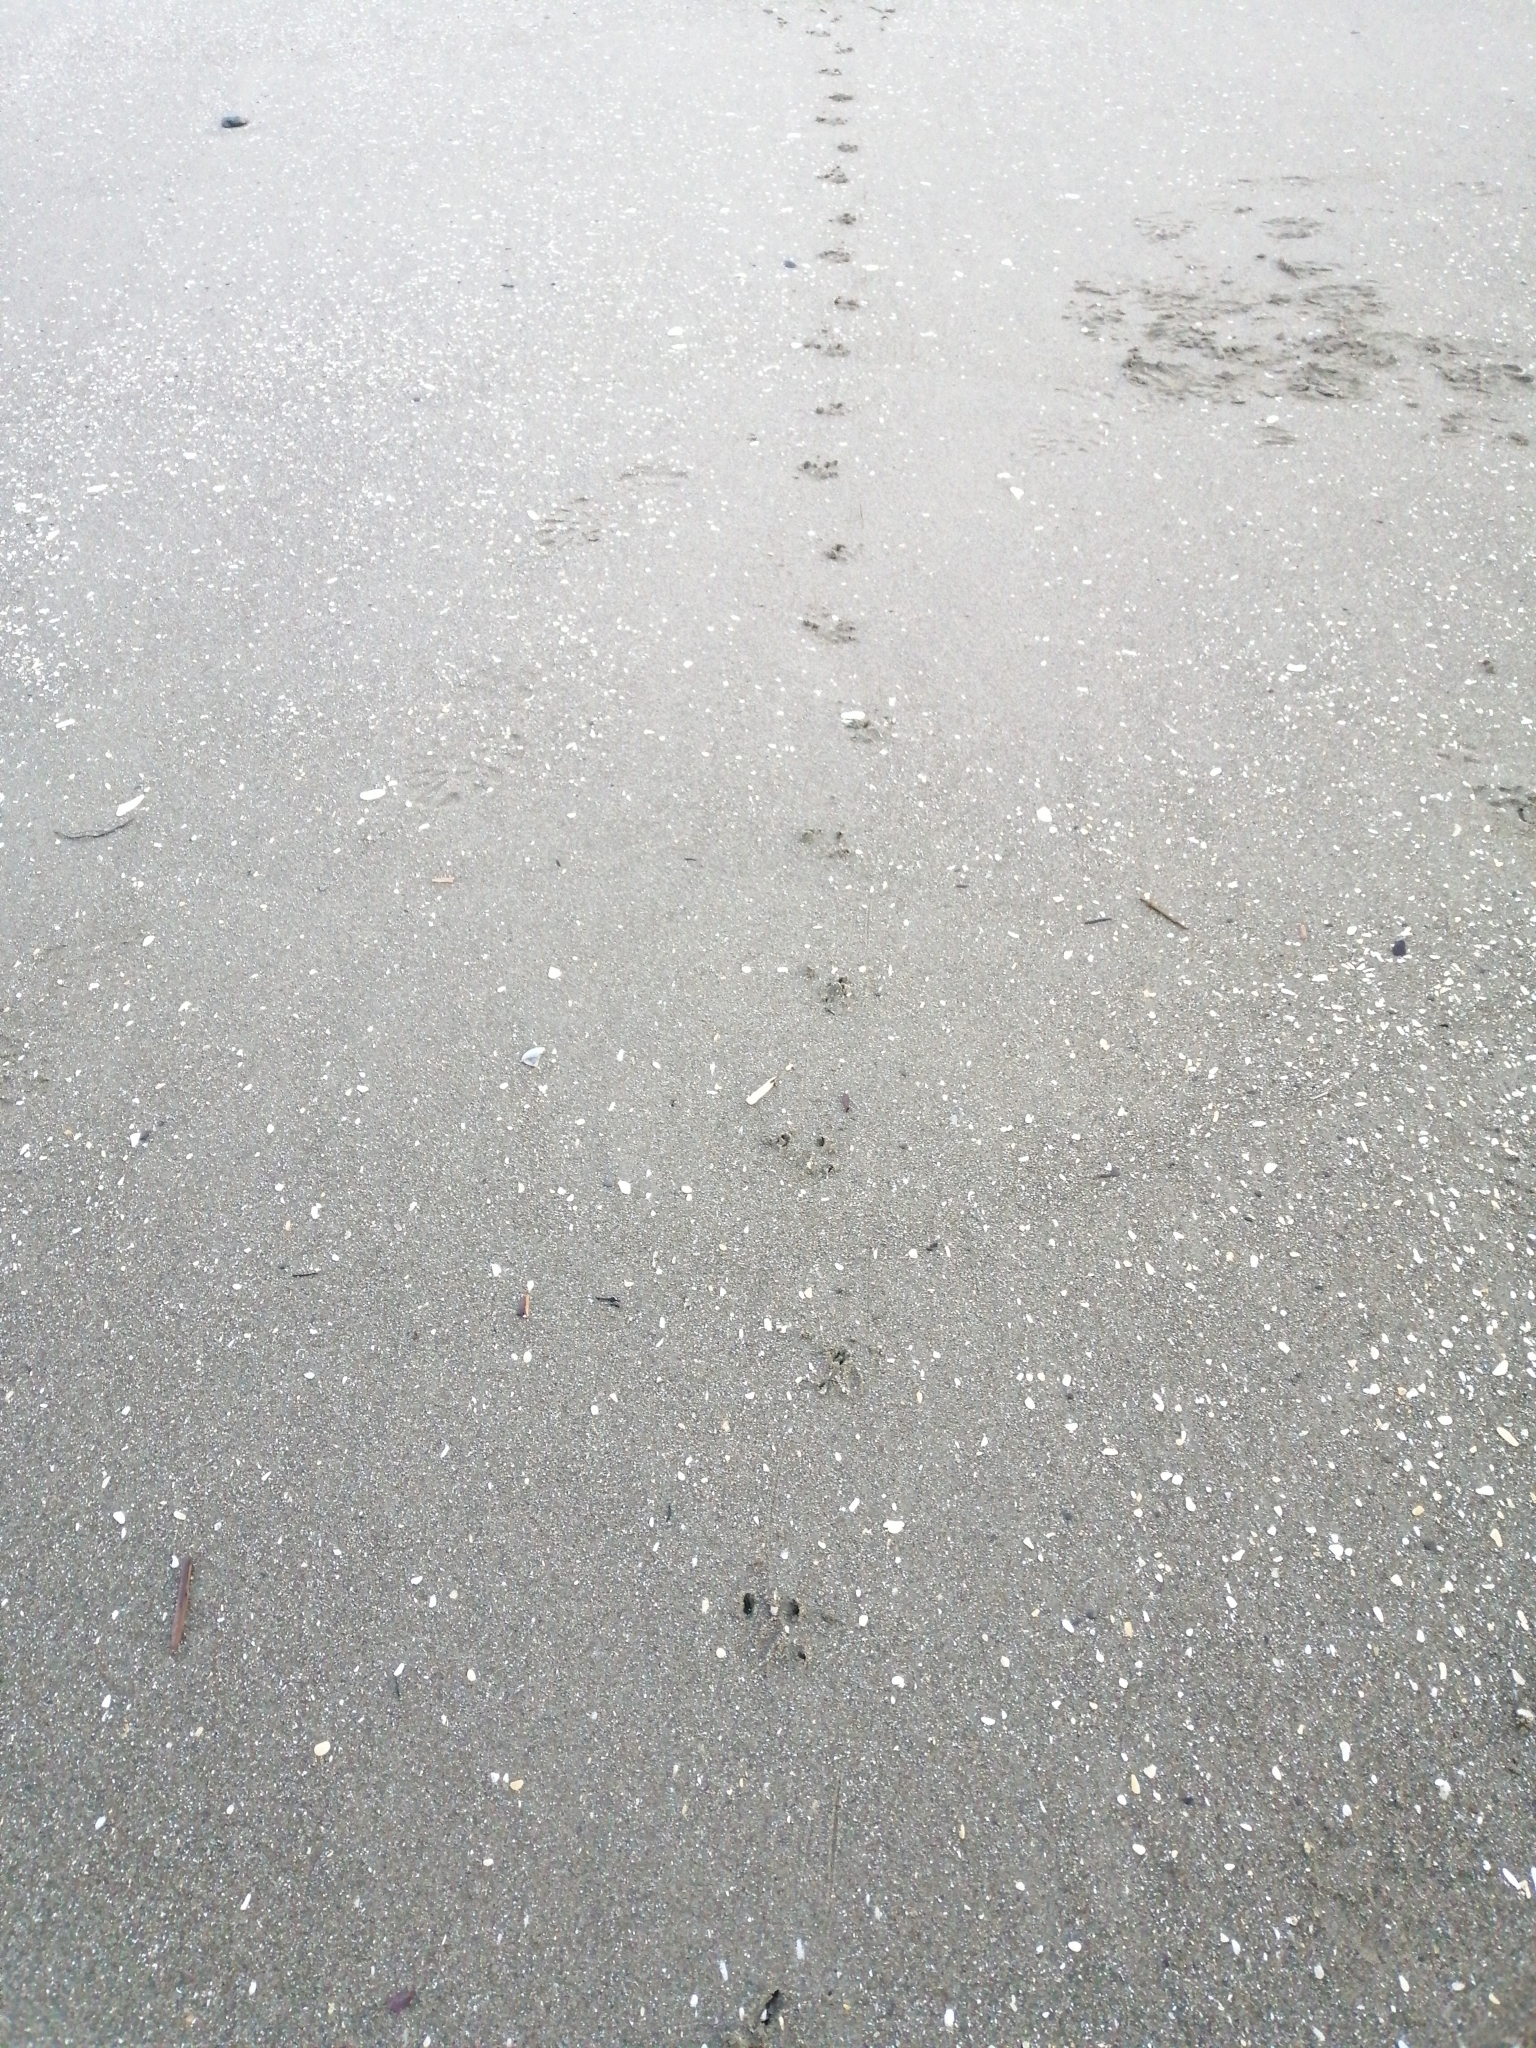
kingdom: Animalia
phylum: Chordata
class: Aves
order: Sphenisciformes
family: Spheniscidae
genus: Eudyptula
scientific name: Eudyptula minor
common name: Little penguin
